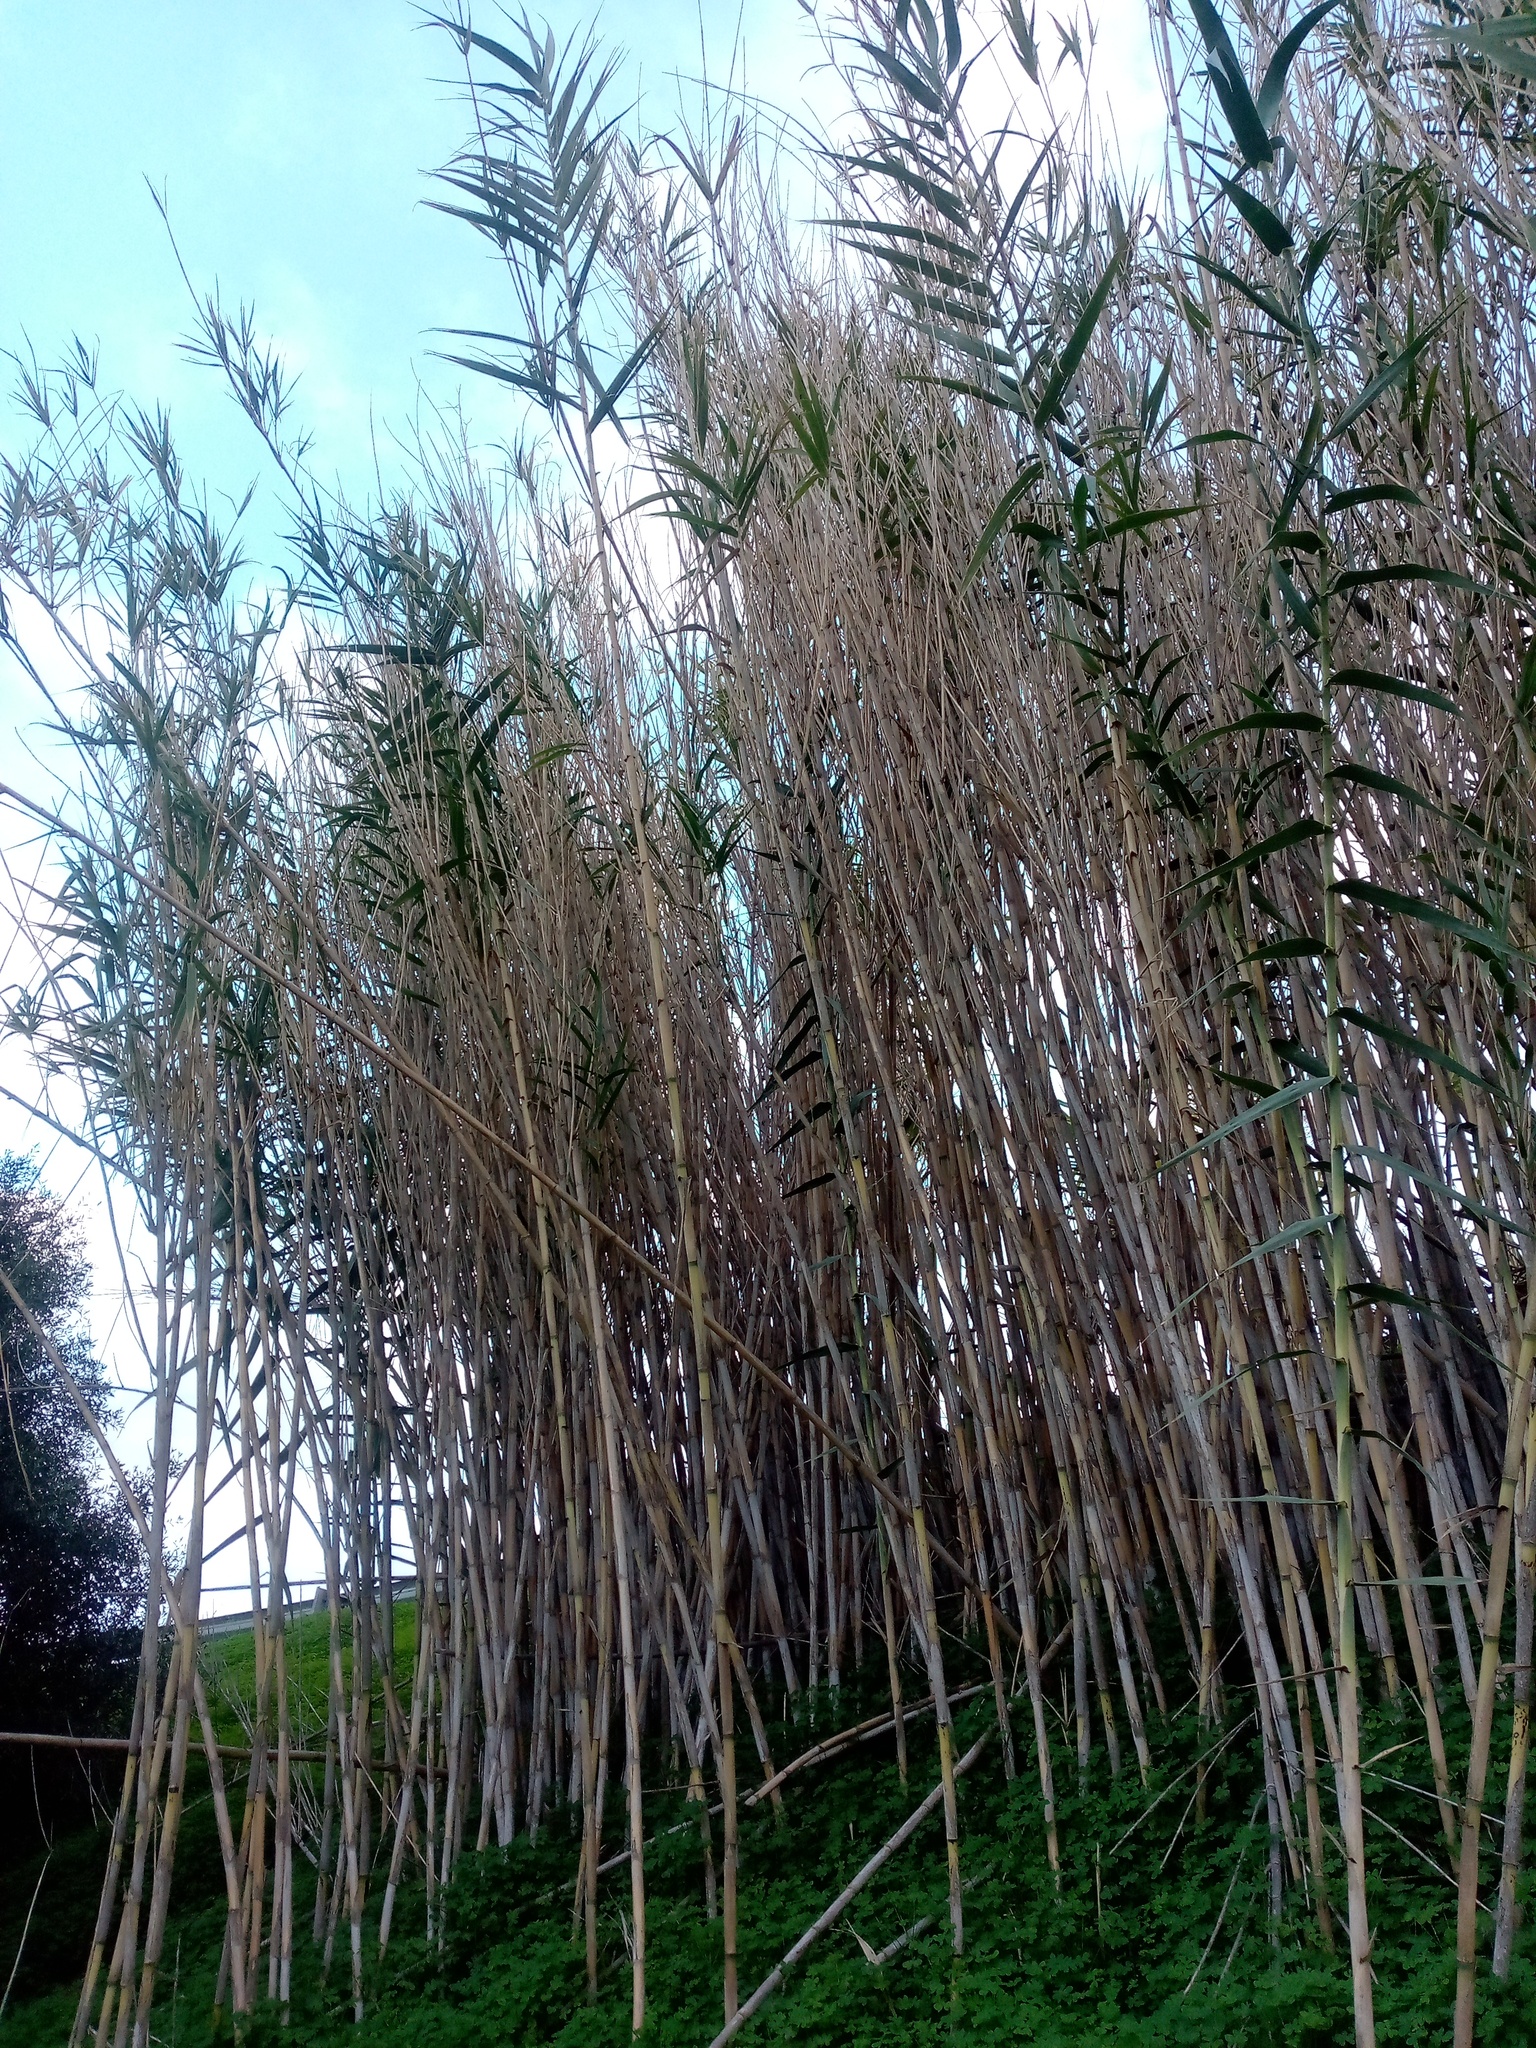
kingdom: Plantae
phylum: Tracheophyta
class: Liliopsida
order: Poales
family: Poaceae
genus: Arundo
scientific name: Arundo donax
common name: Giant reed
